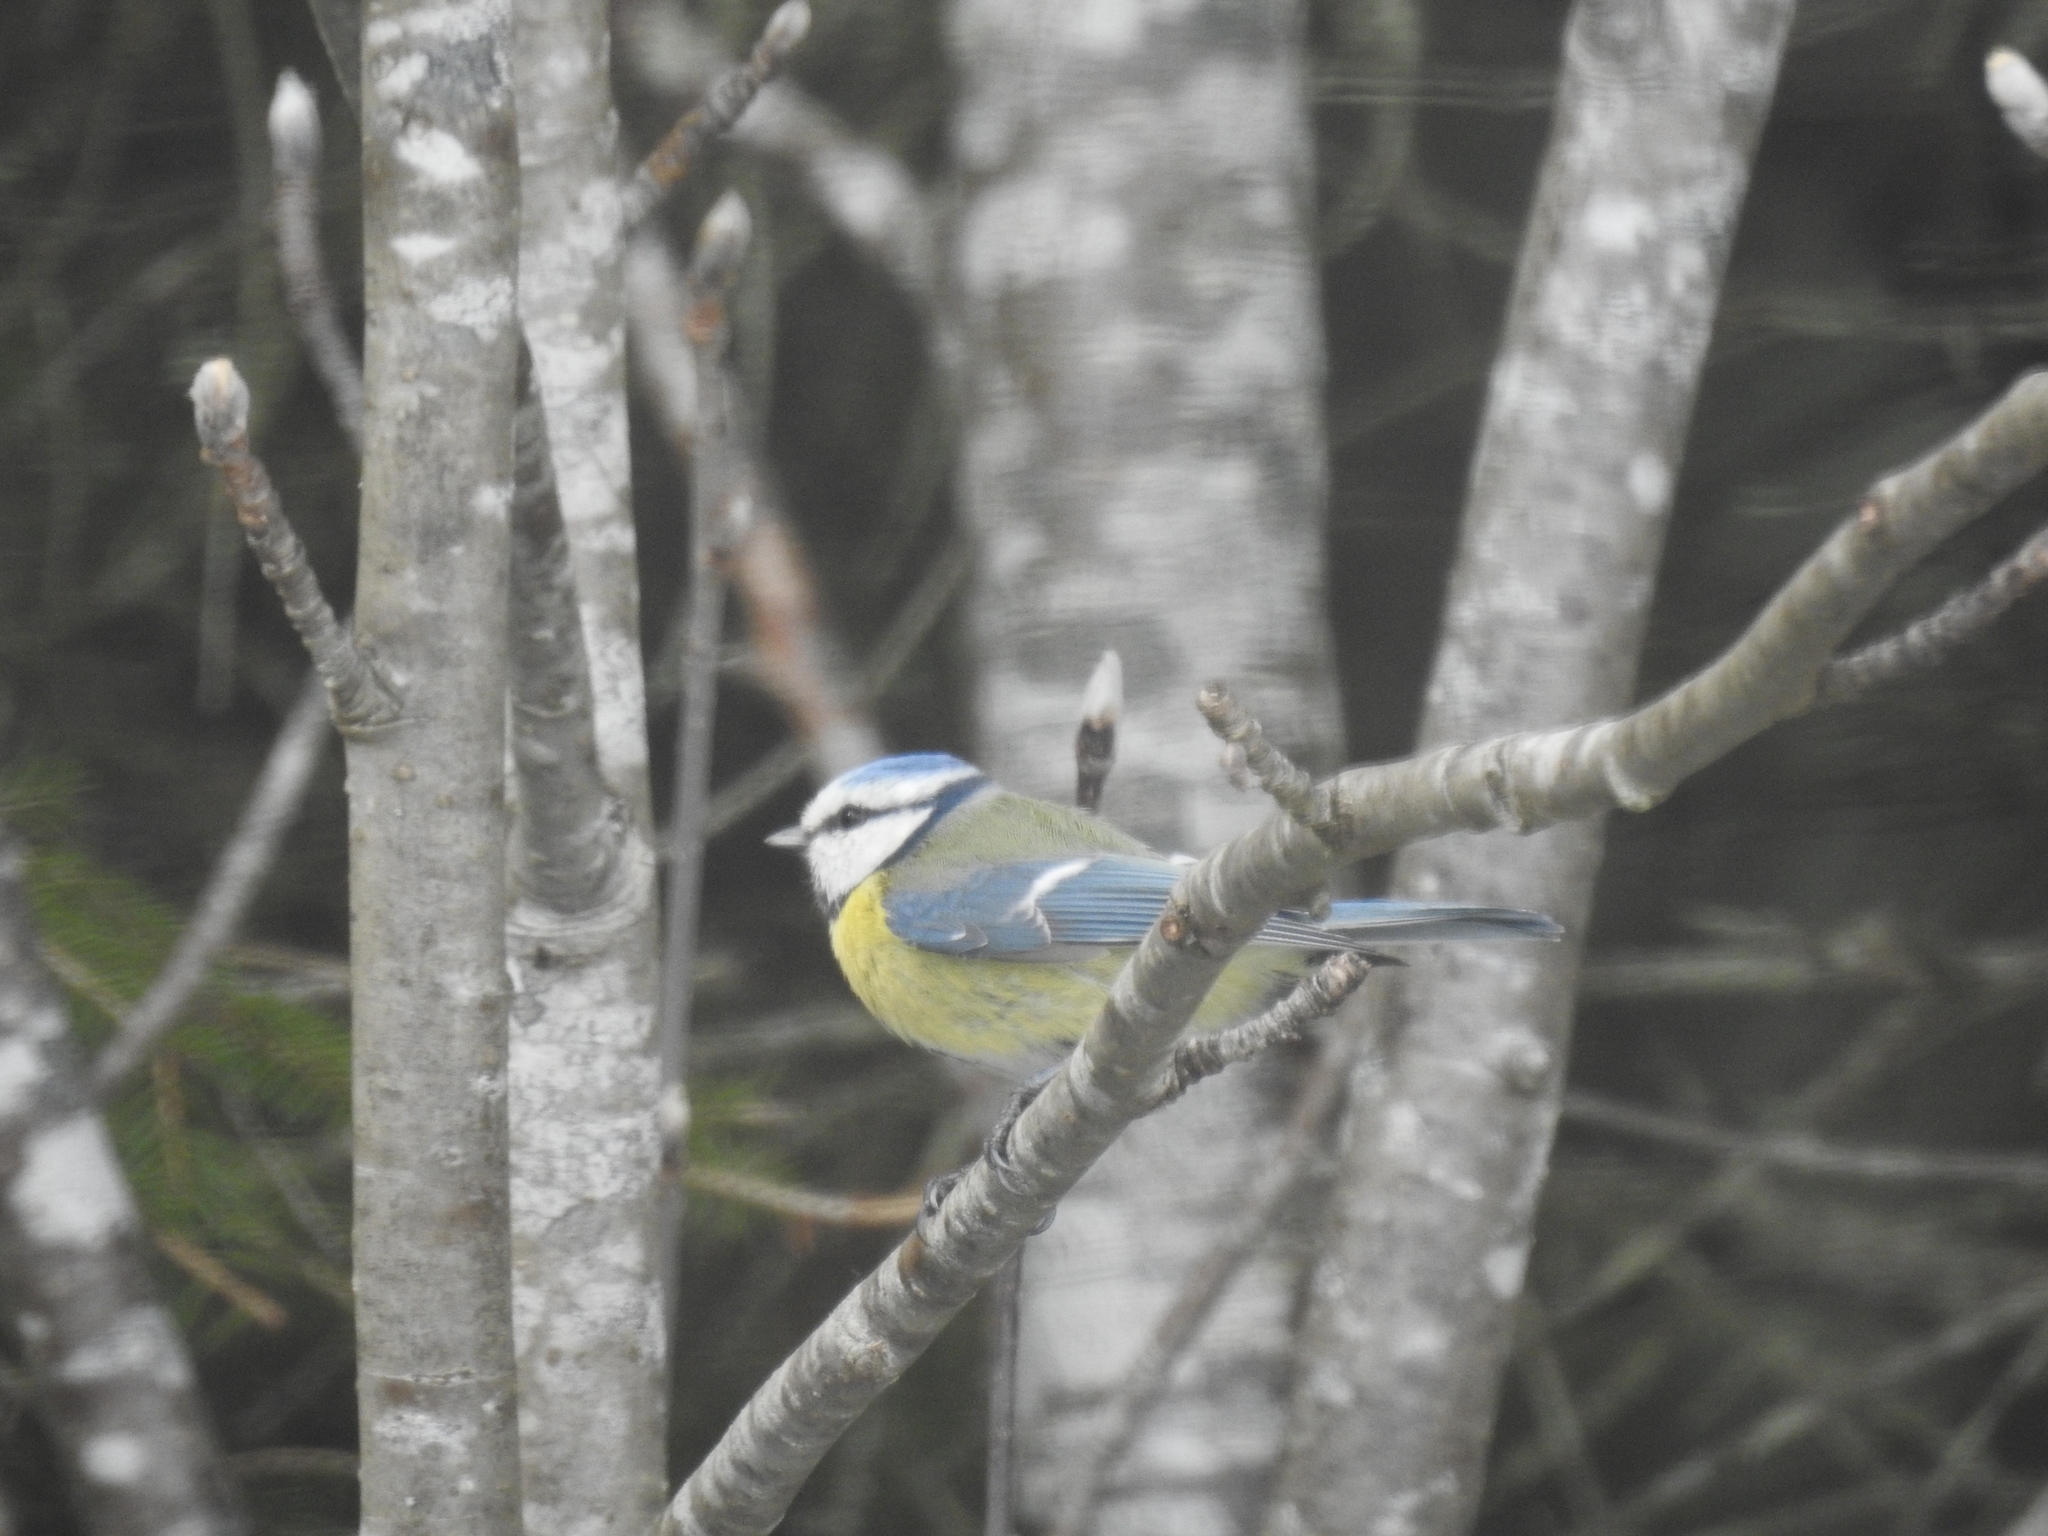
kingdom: Animalia
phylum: Chordata
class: Aves
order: Passeriformes
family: Paridae
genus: Cyanistes
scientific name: Cyanistes caeruleus
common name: Eurasian blue tit
